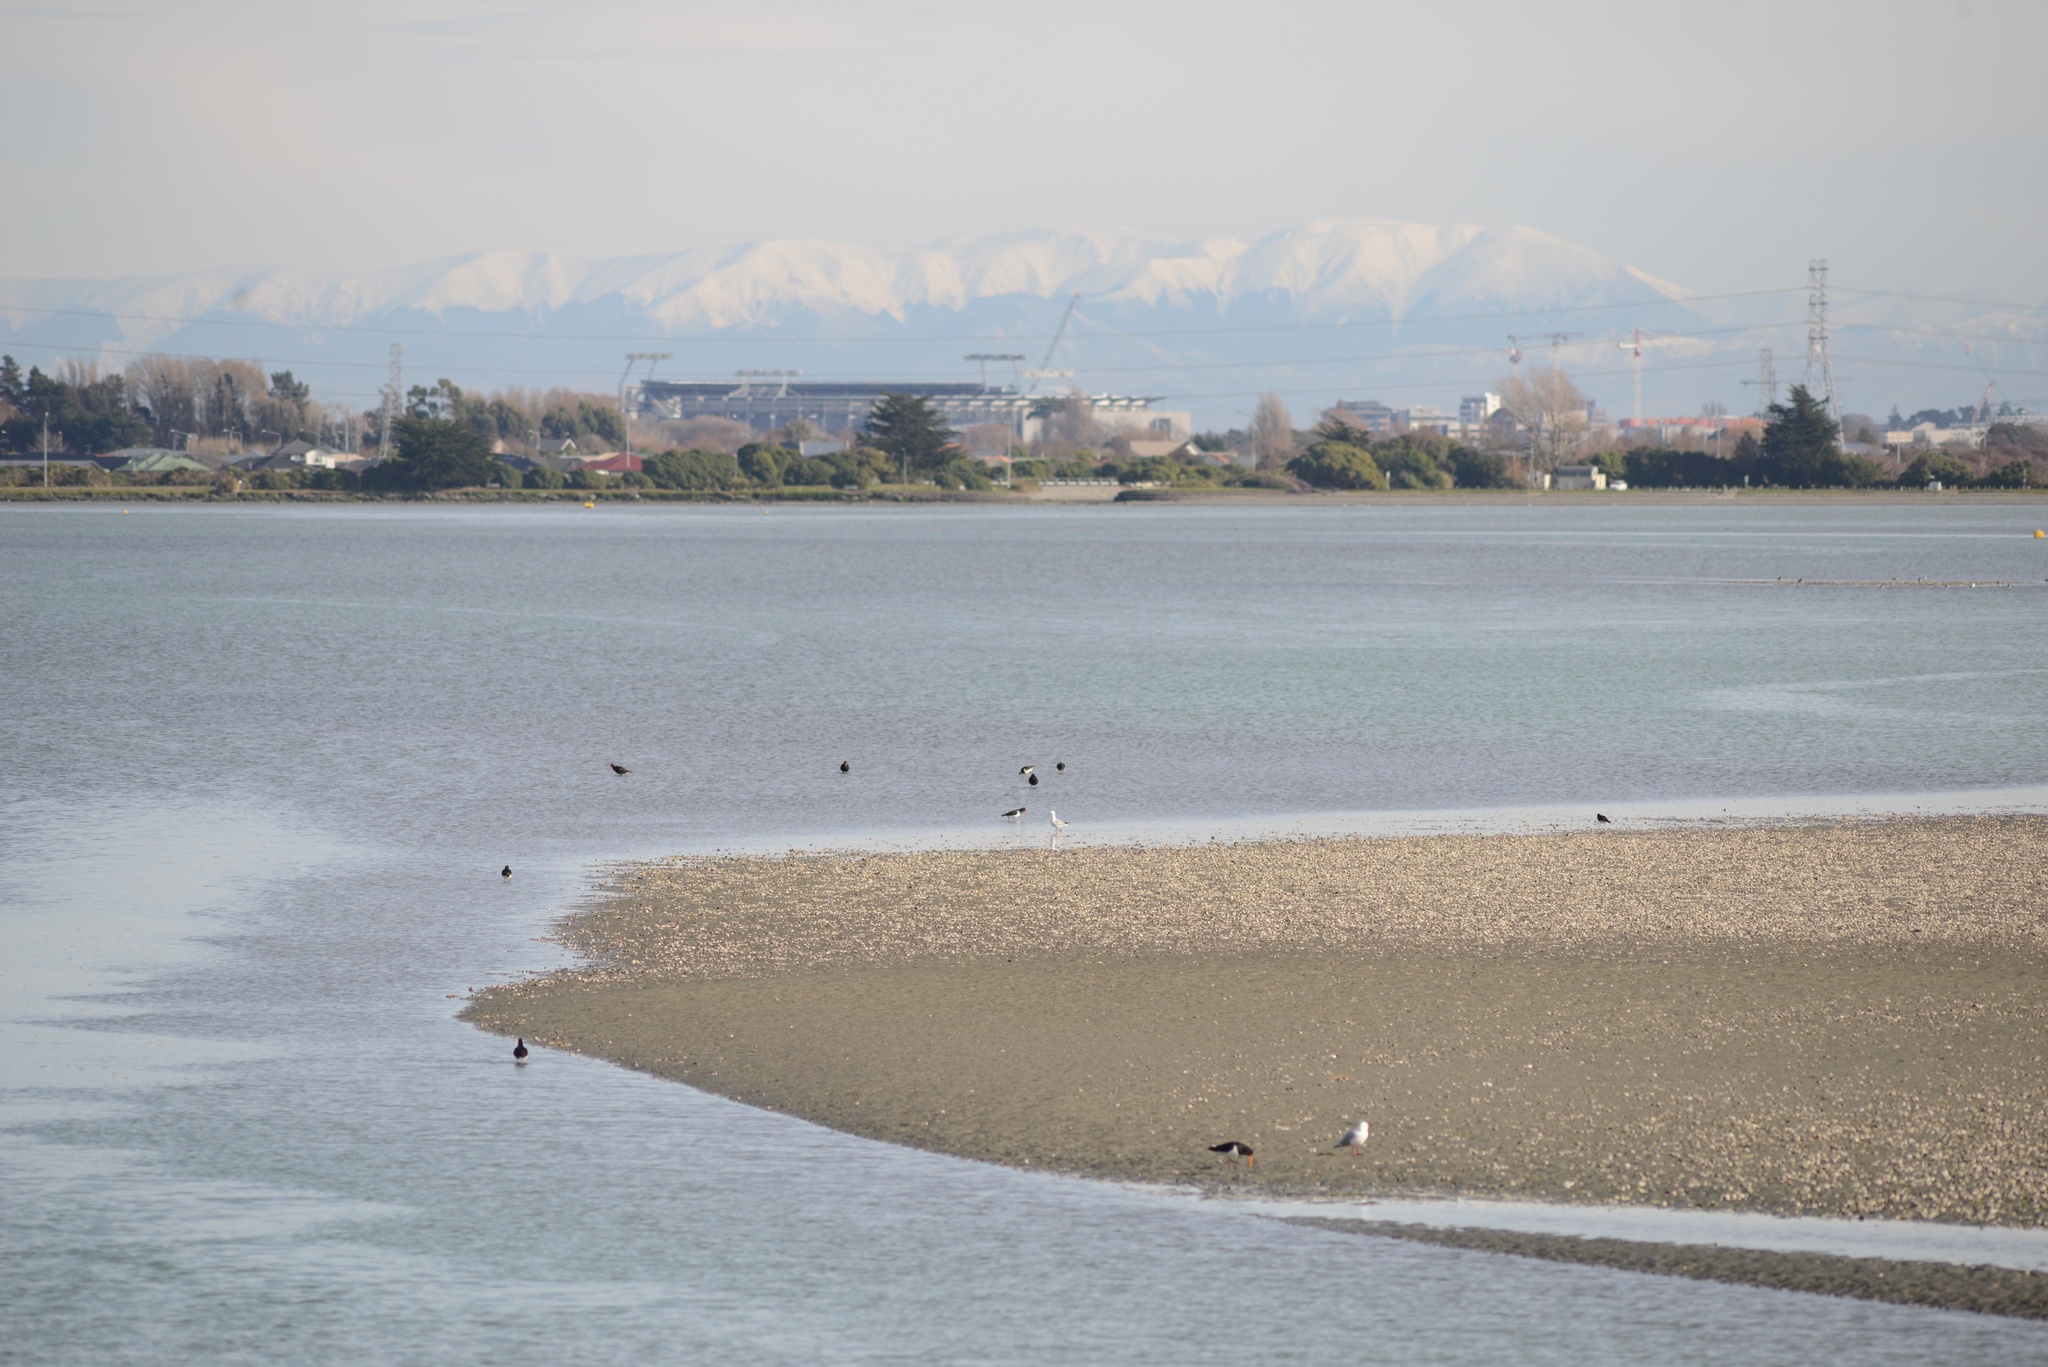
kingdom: Animalia
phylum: Chordata
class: Aves
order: Charadriiformes
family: Haematopodidae
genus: Haematopus
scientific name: Haematopus finschi
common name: South island oystercatcher
